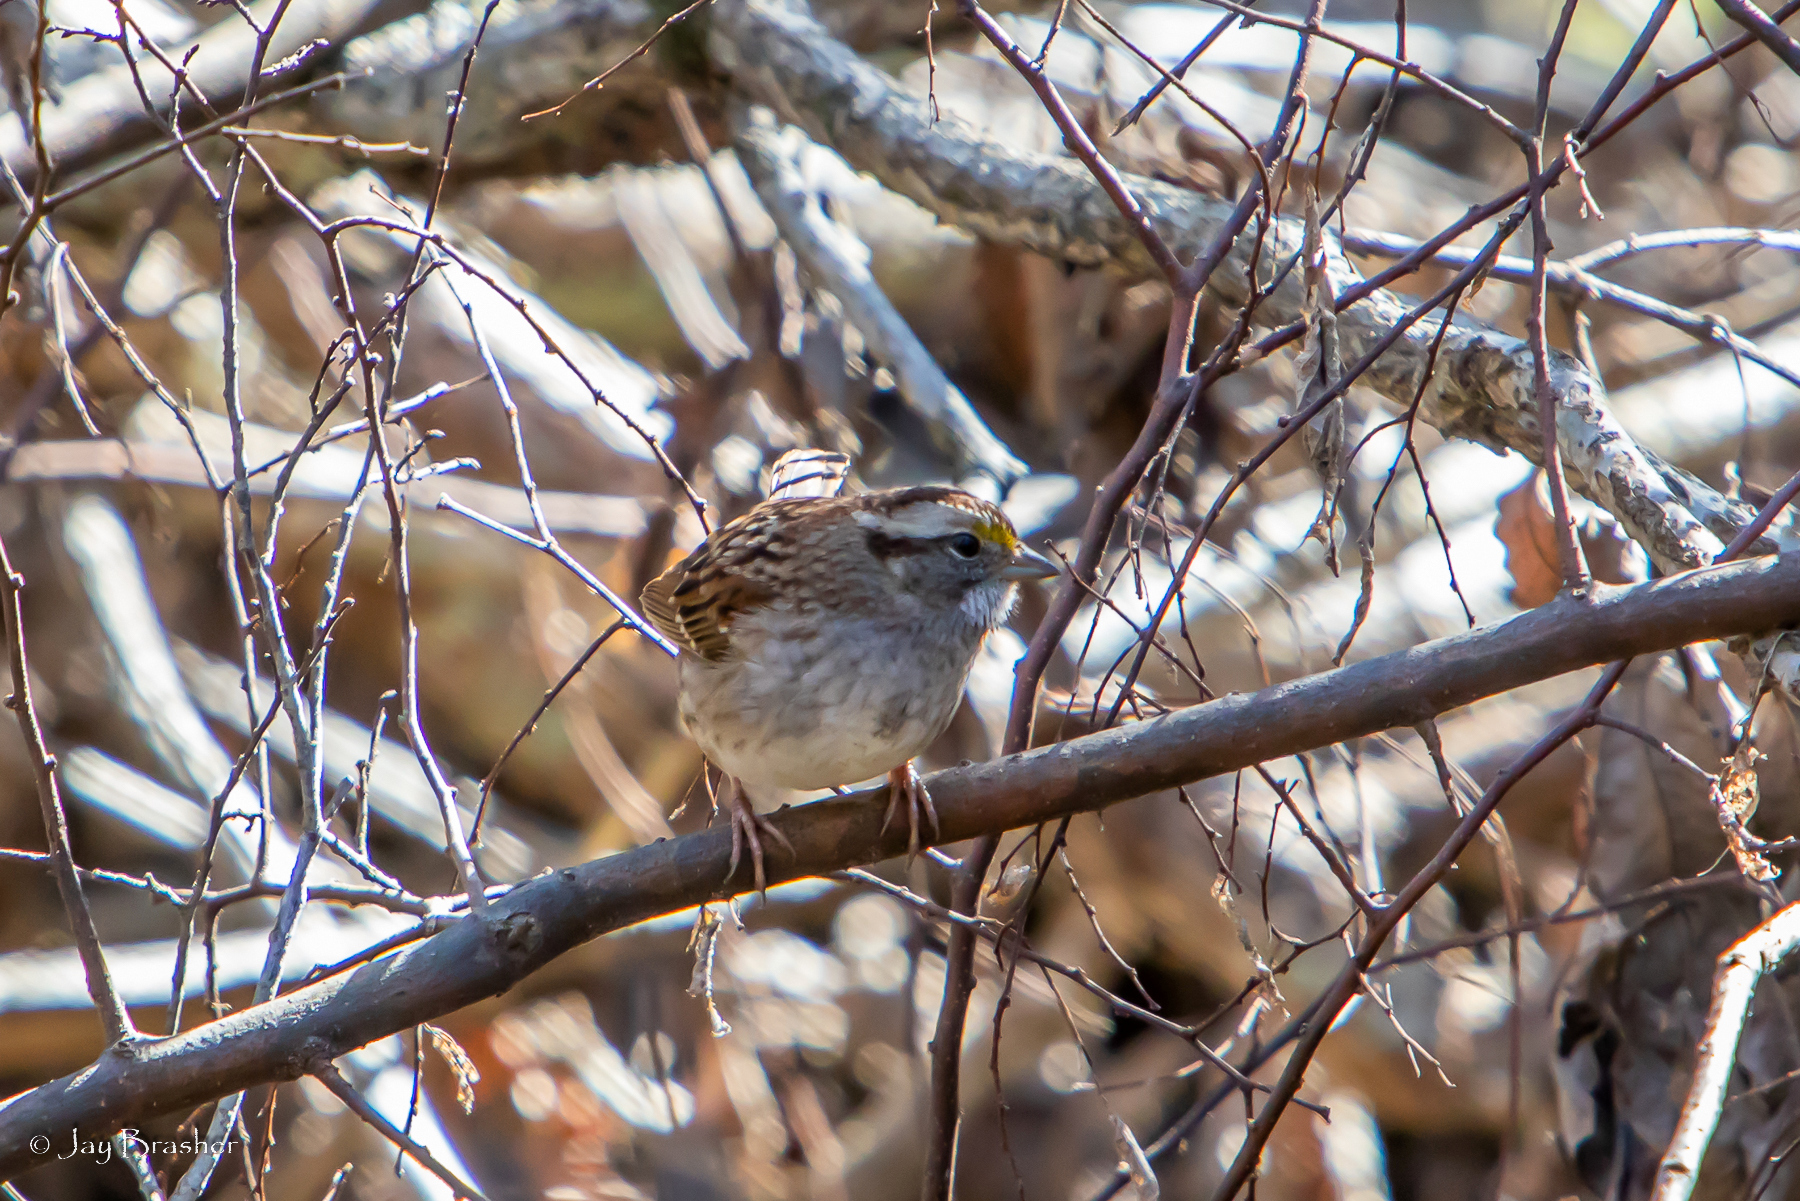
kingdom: Animalia
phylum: Chordata
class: Aves
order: Passeriformes
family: Passerellidae
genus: Zonotrichia
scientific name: Zonotrichia albicollis
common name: White-throated sparrow
